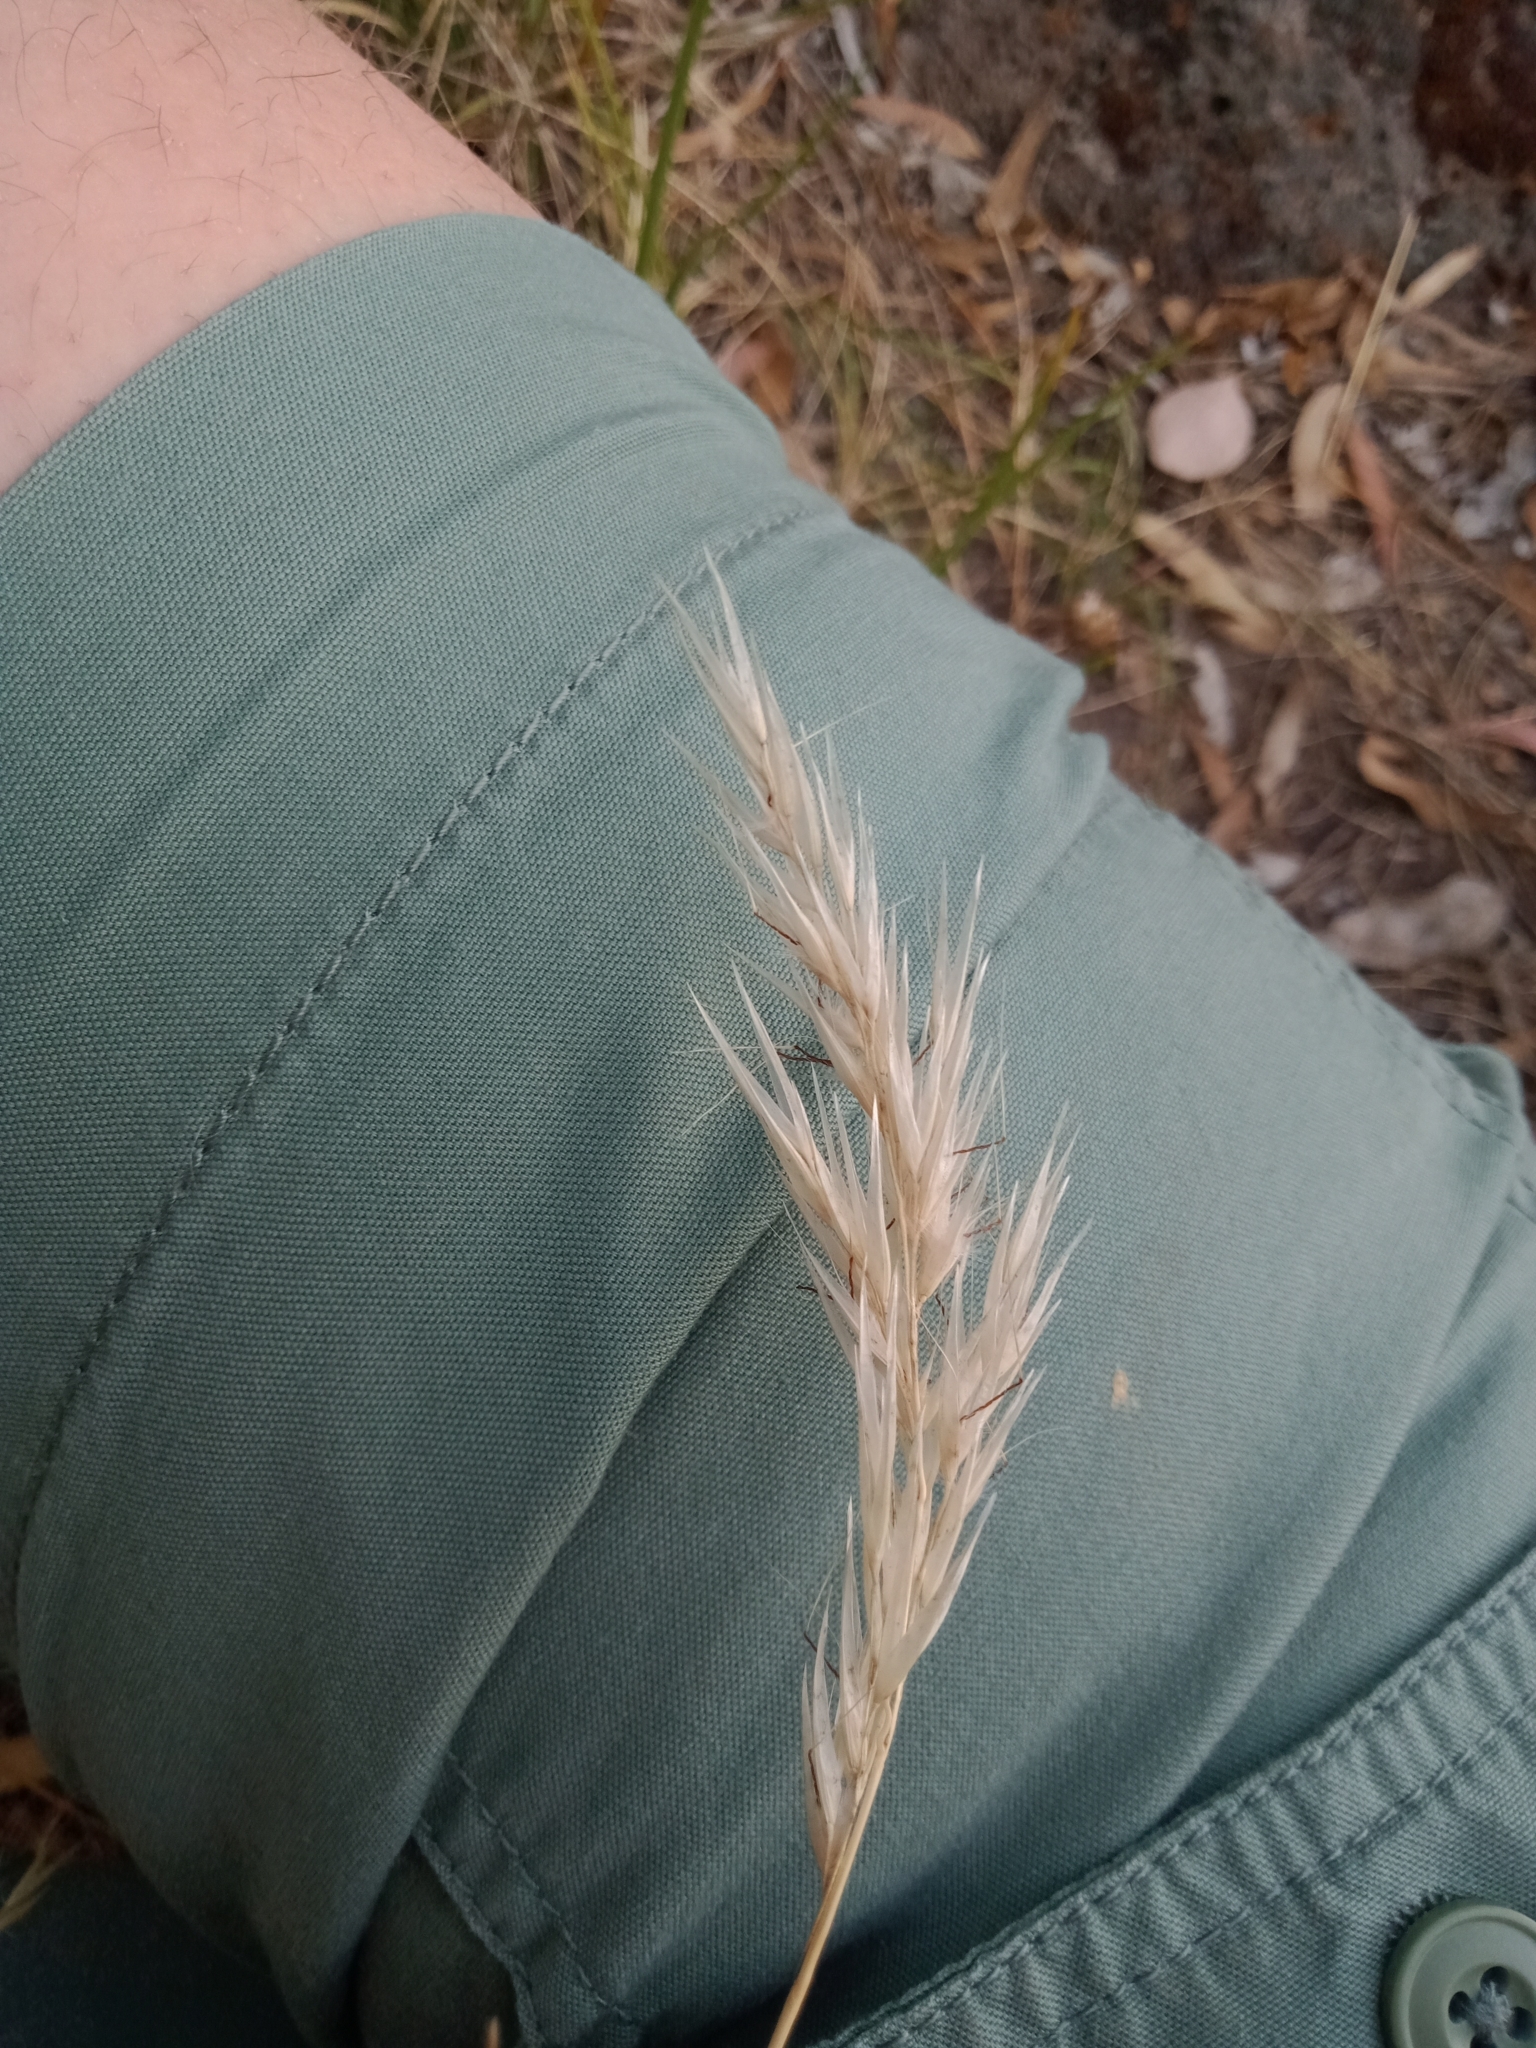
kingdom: Plantae
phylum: Tracheophyta
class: Liliopsida
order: Poales
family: Poaceae
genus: Rytidosperma
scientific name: Rytidosperma setaceum
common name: Small-flower wallaby grass
